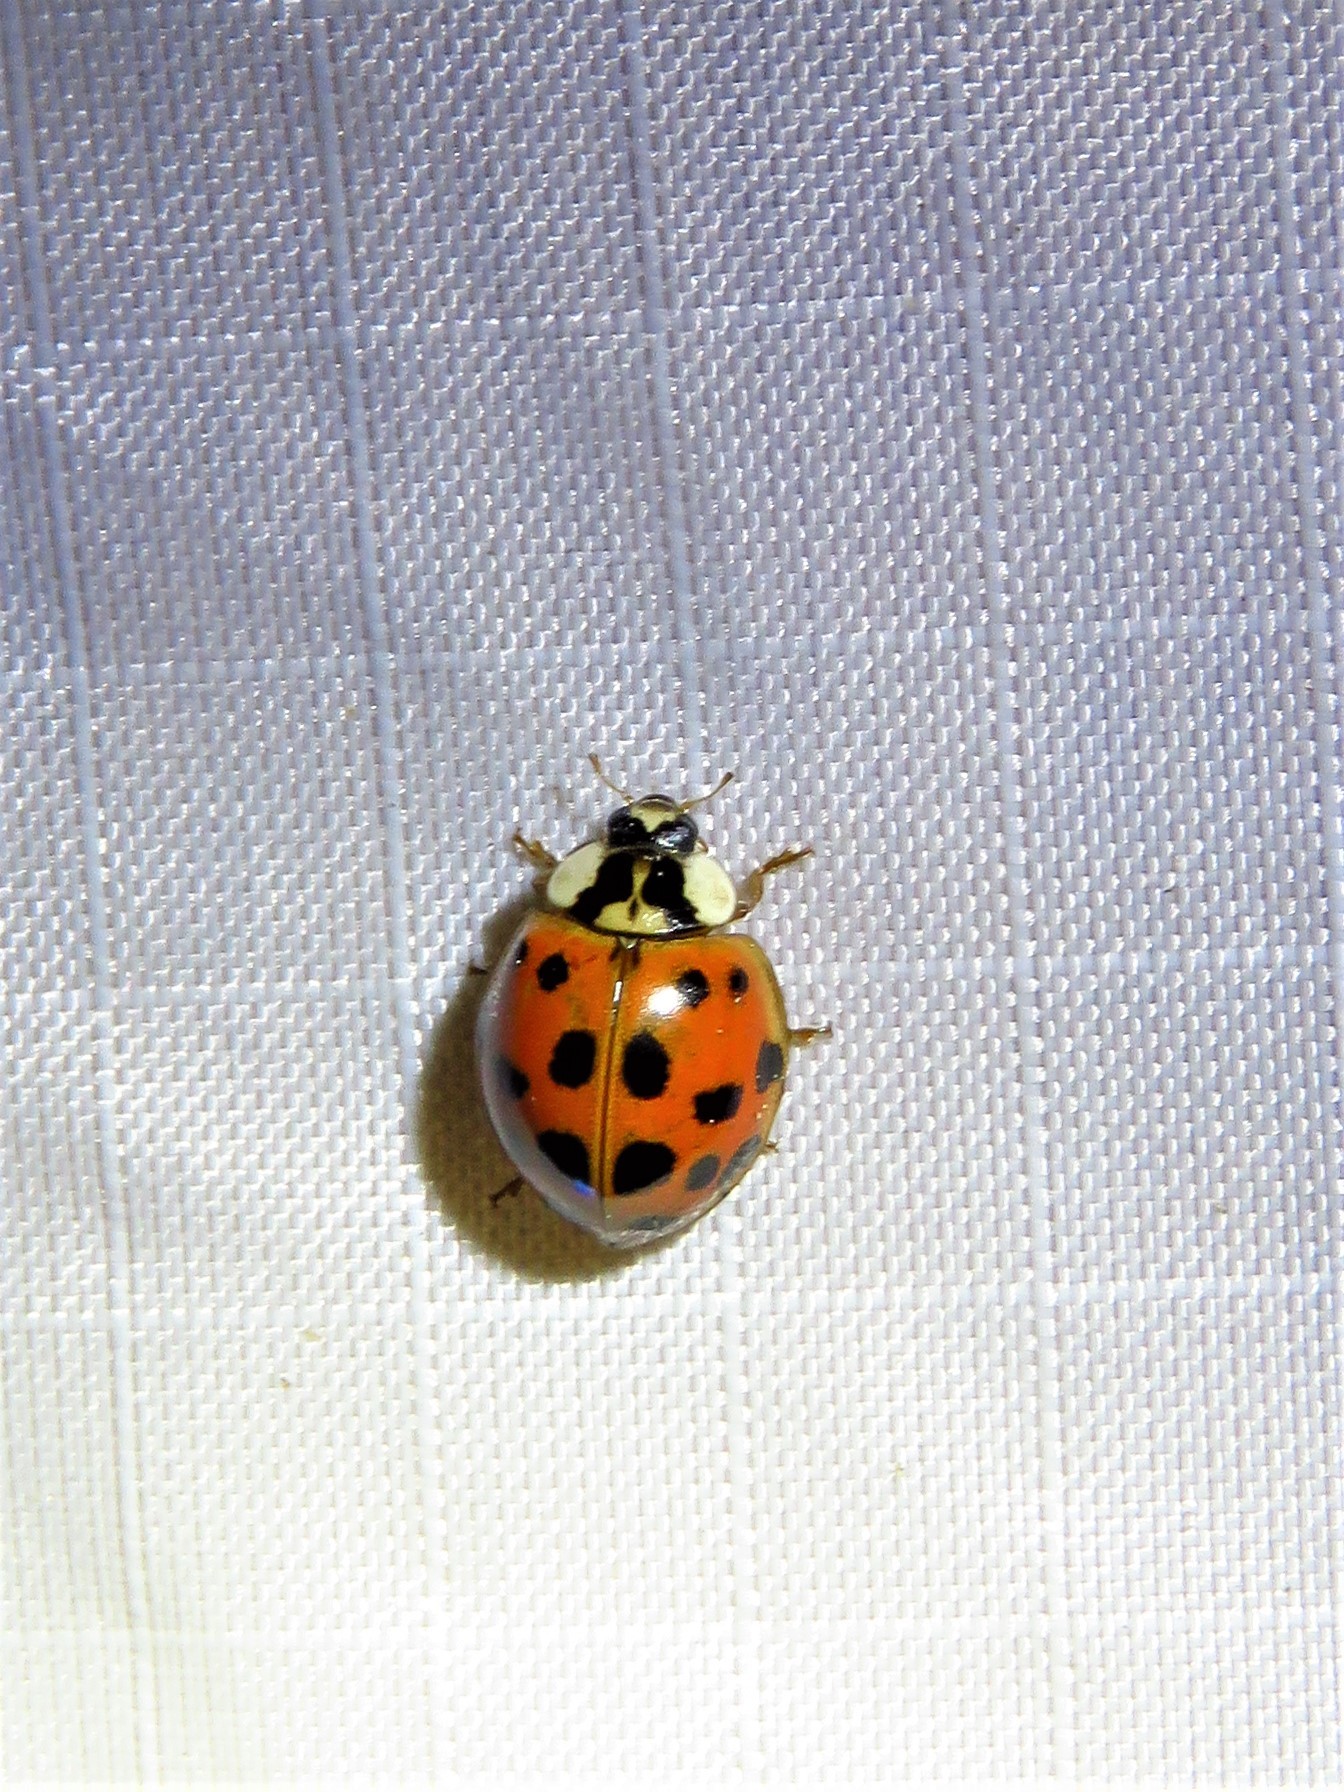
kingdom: Animalia
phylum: Arthropoda
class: Insecta
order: Coleoptera
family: Coccinellidae
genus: Harmonia
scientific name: Harmonia axyridis
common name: Harlequin ladybird
